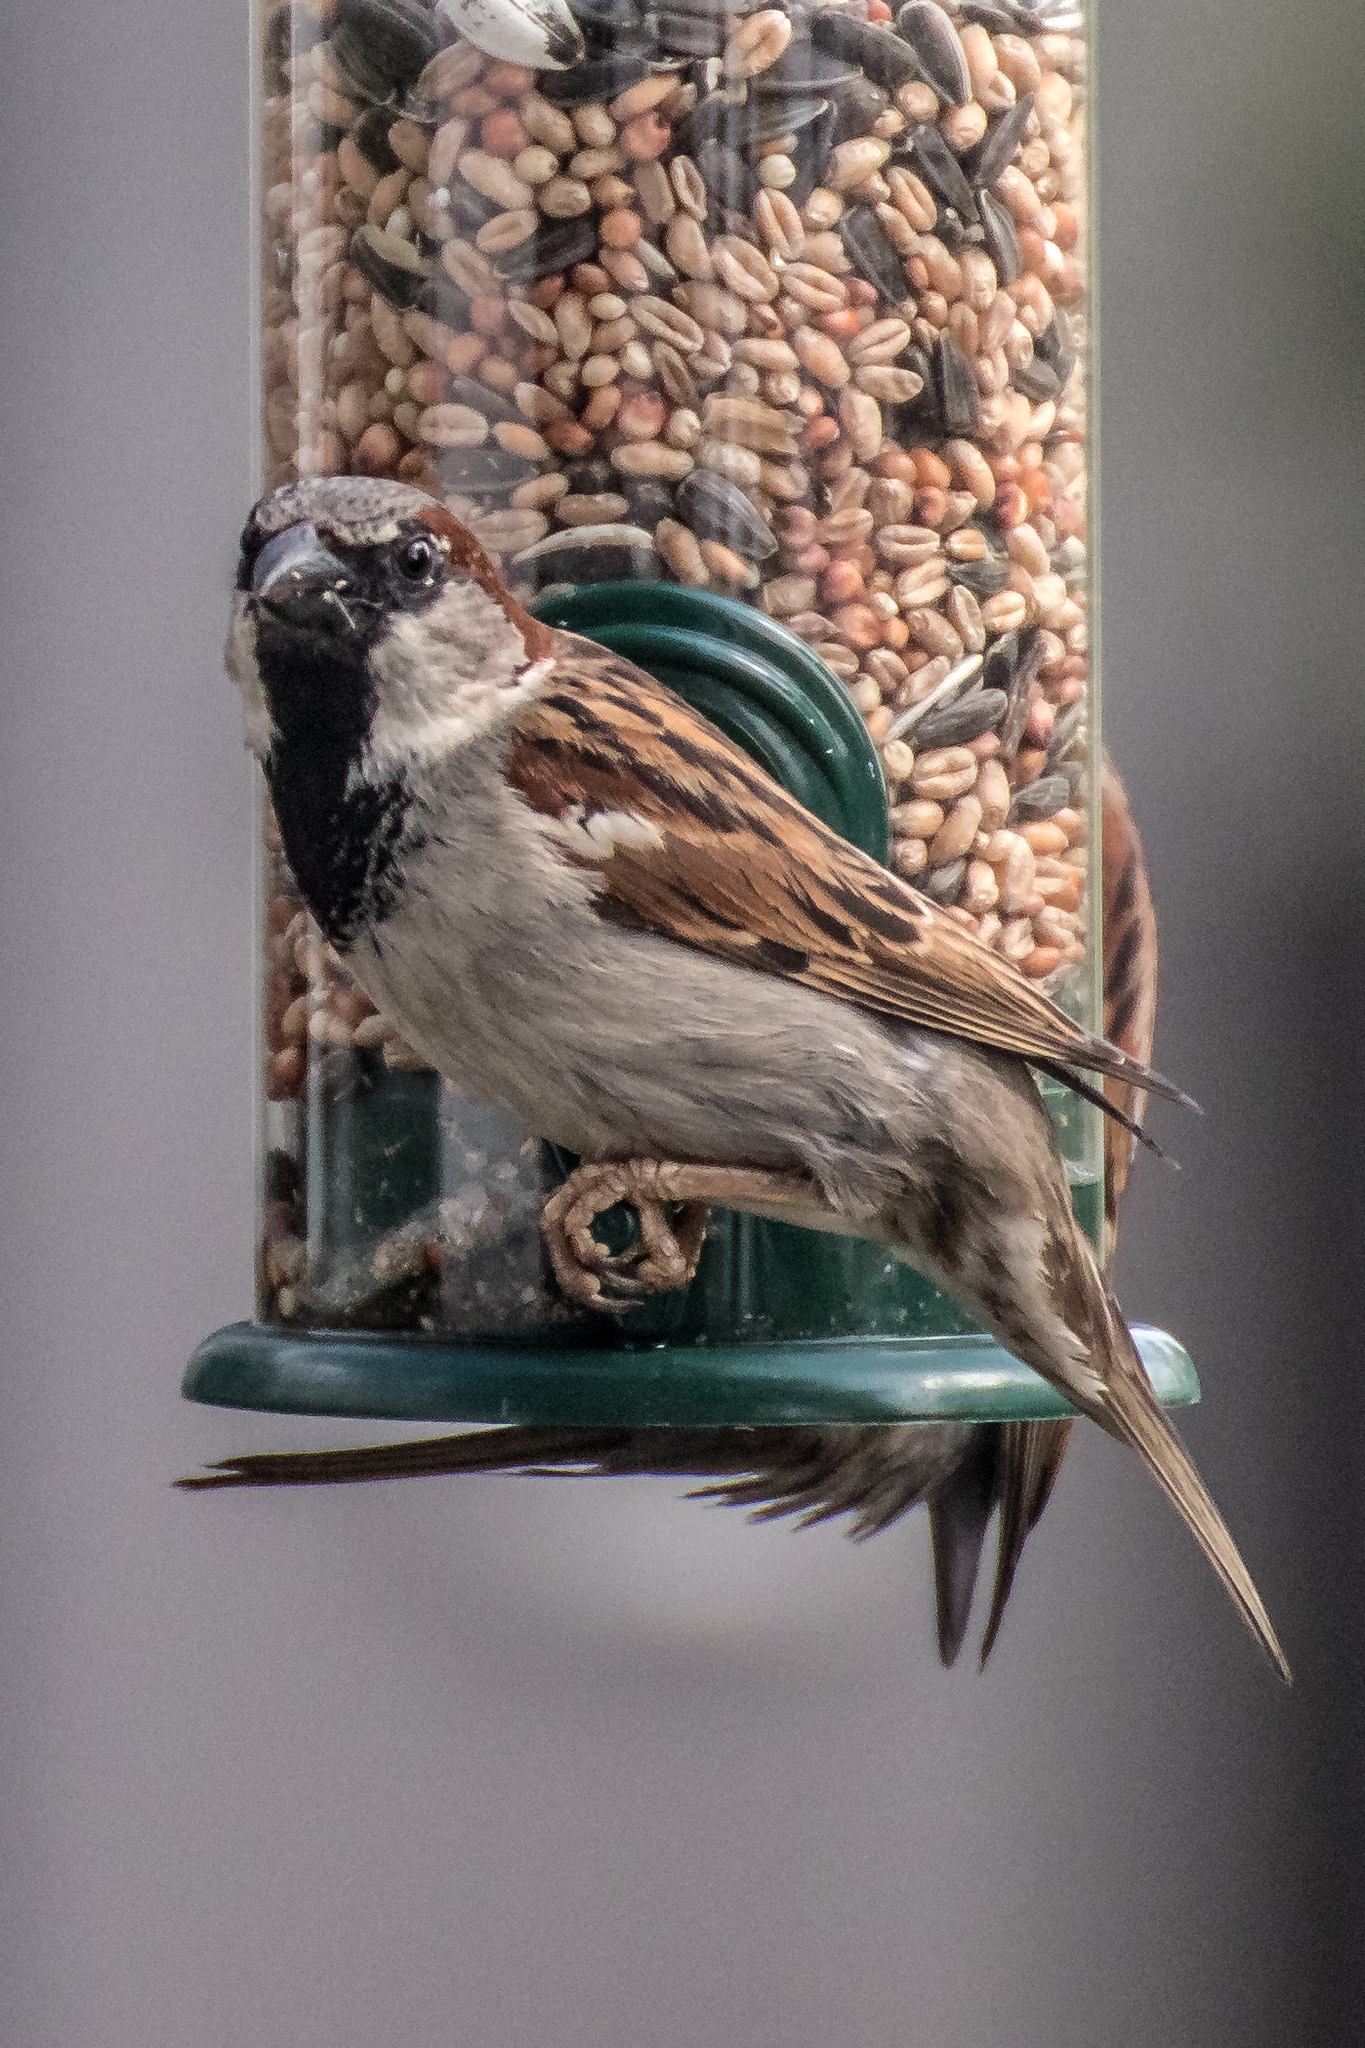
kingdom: Animalia
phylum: Chordata
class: Aves
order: Passeriformes
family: Passeridae
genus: Passer
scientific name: Passer domesticus
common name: House sparrow
